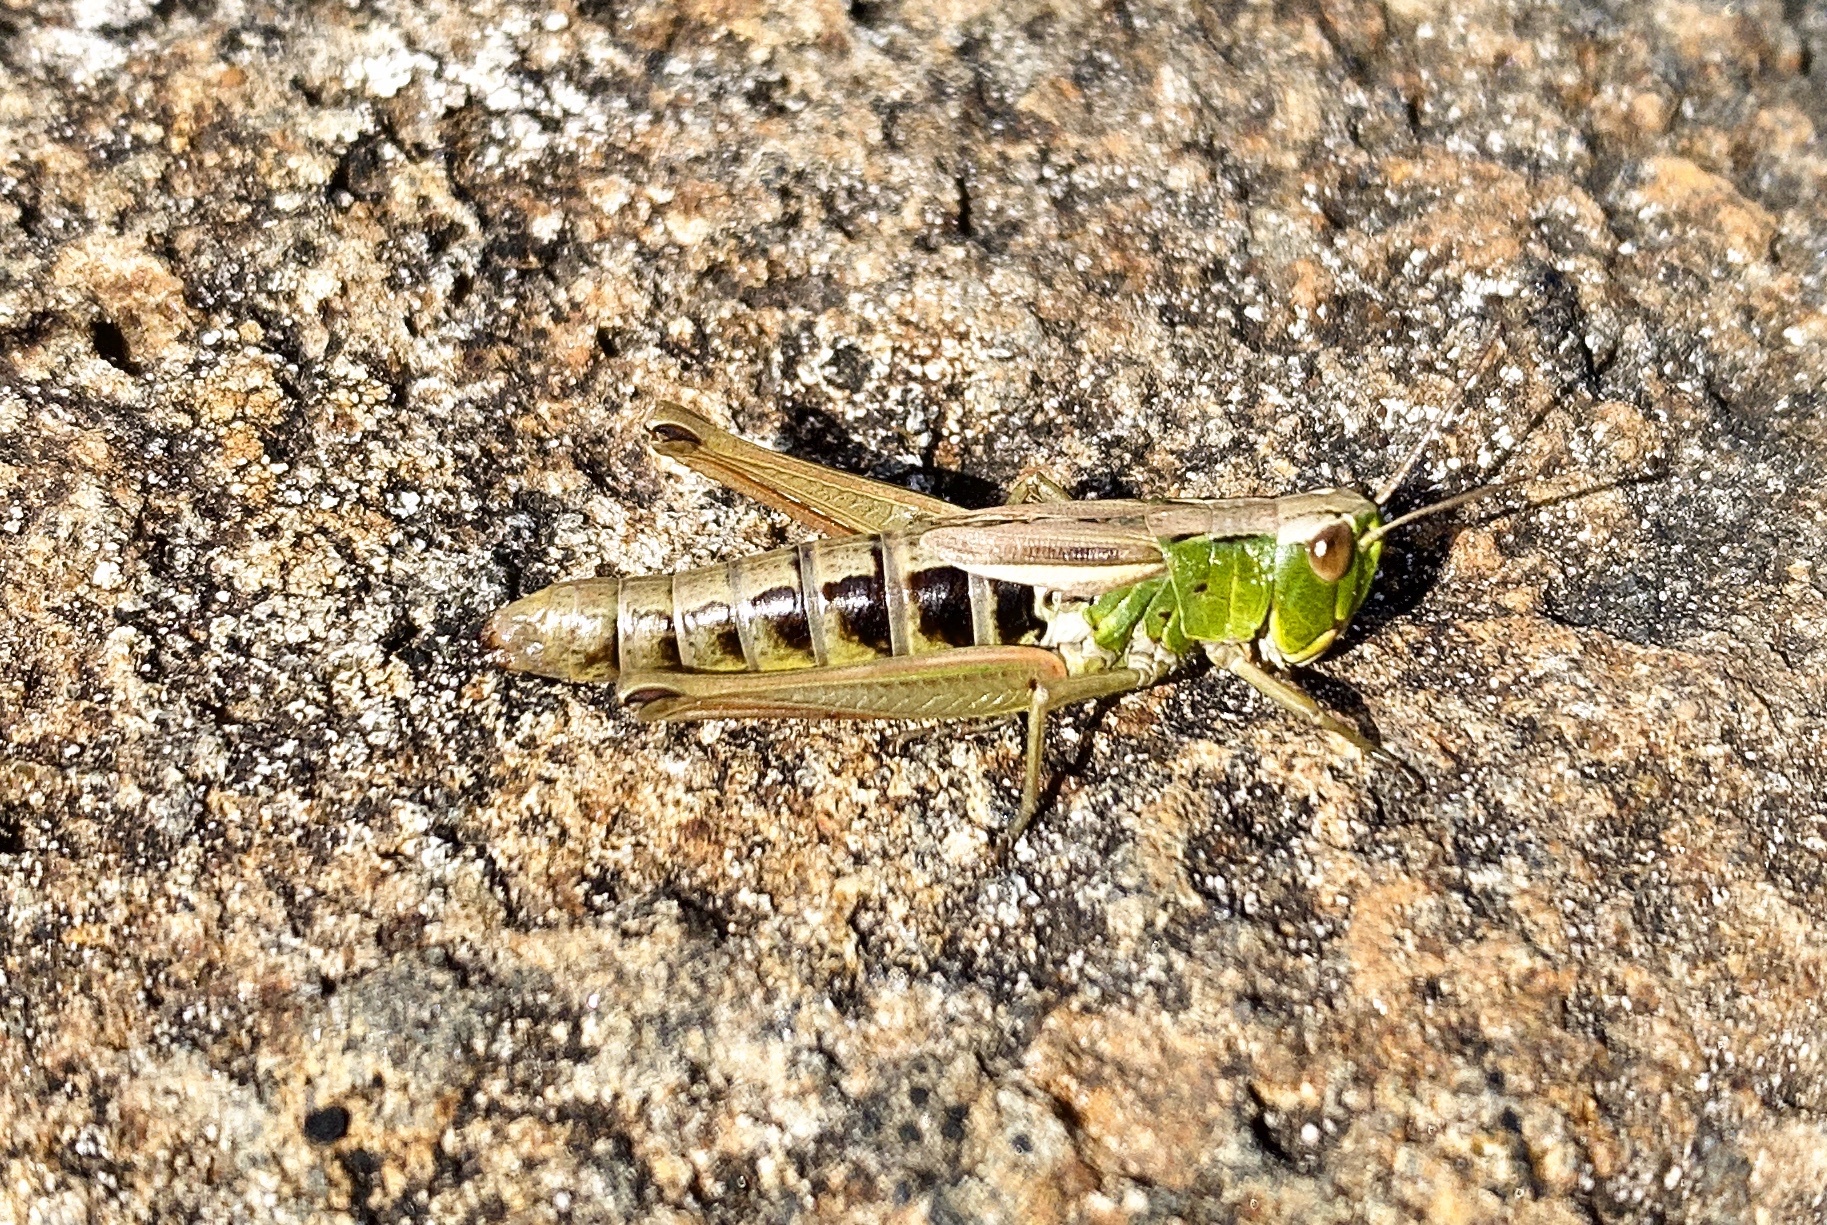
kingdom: Animalia
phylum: Arthropoda
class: Insecta
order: Orthoptera
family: Acrididae
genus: Pseudochorthippus
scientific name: Pseudochorthippus parallelus
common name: Meadow grasshopper
